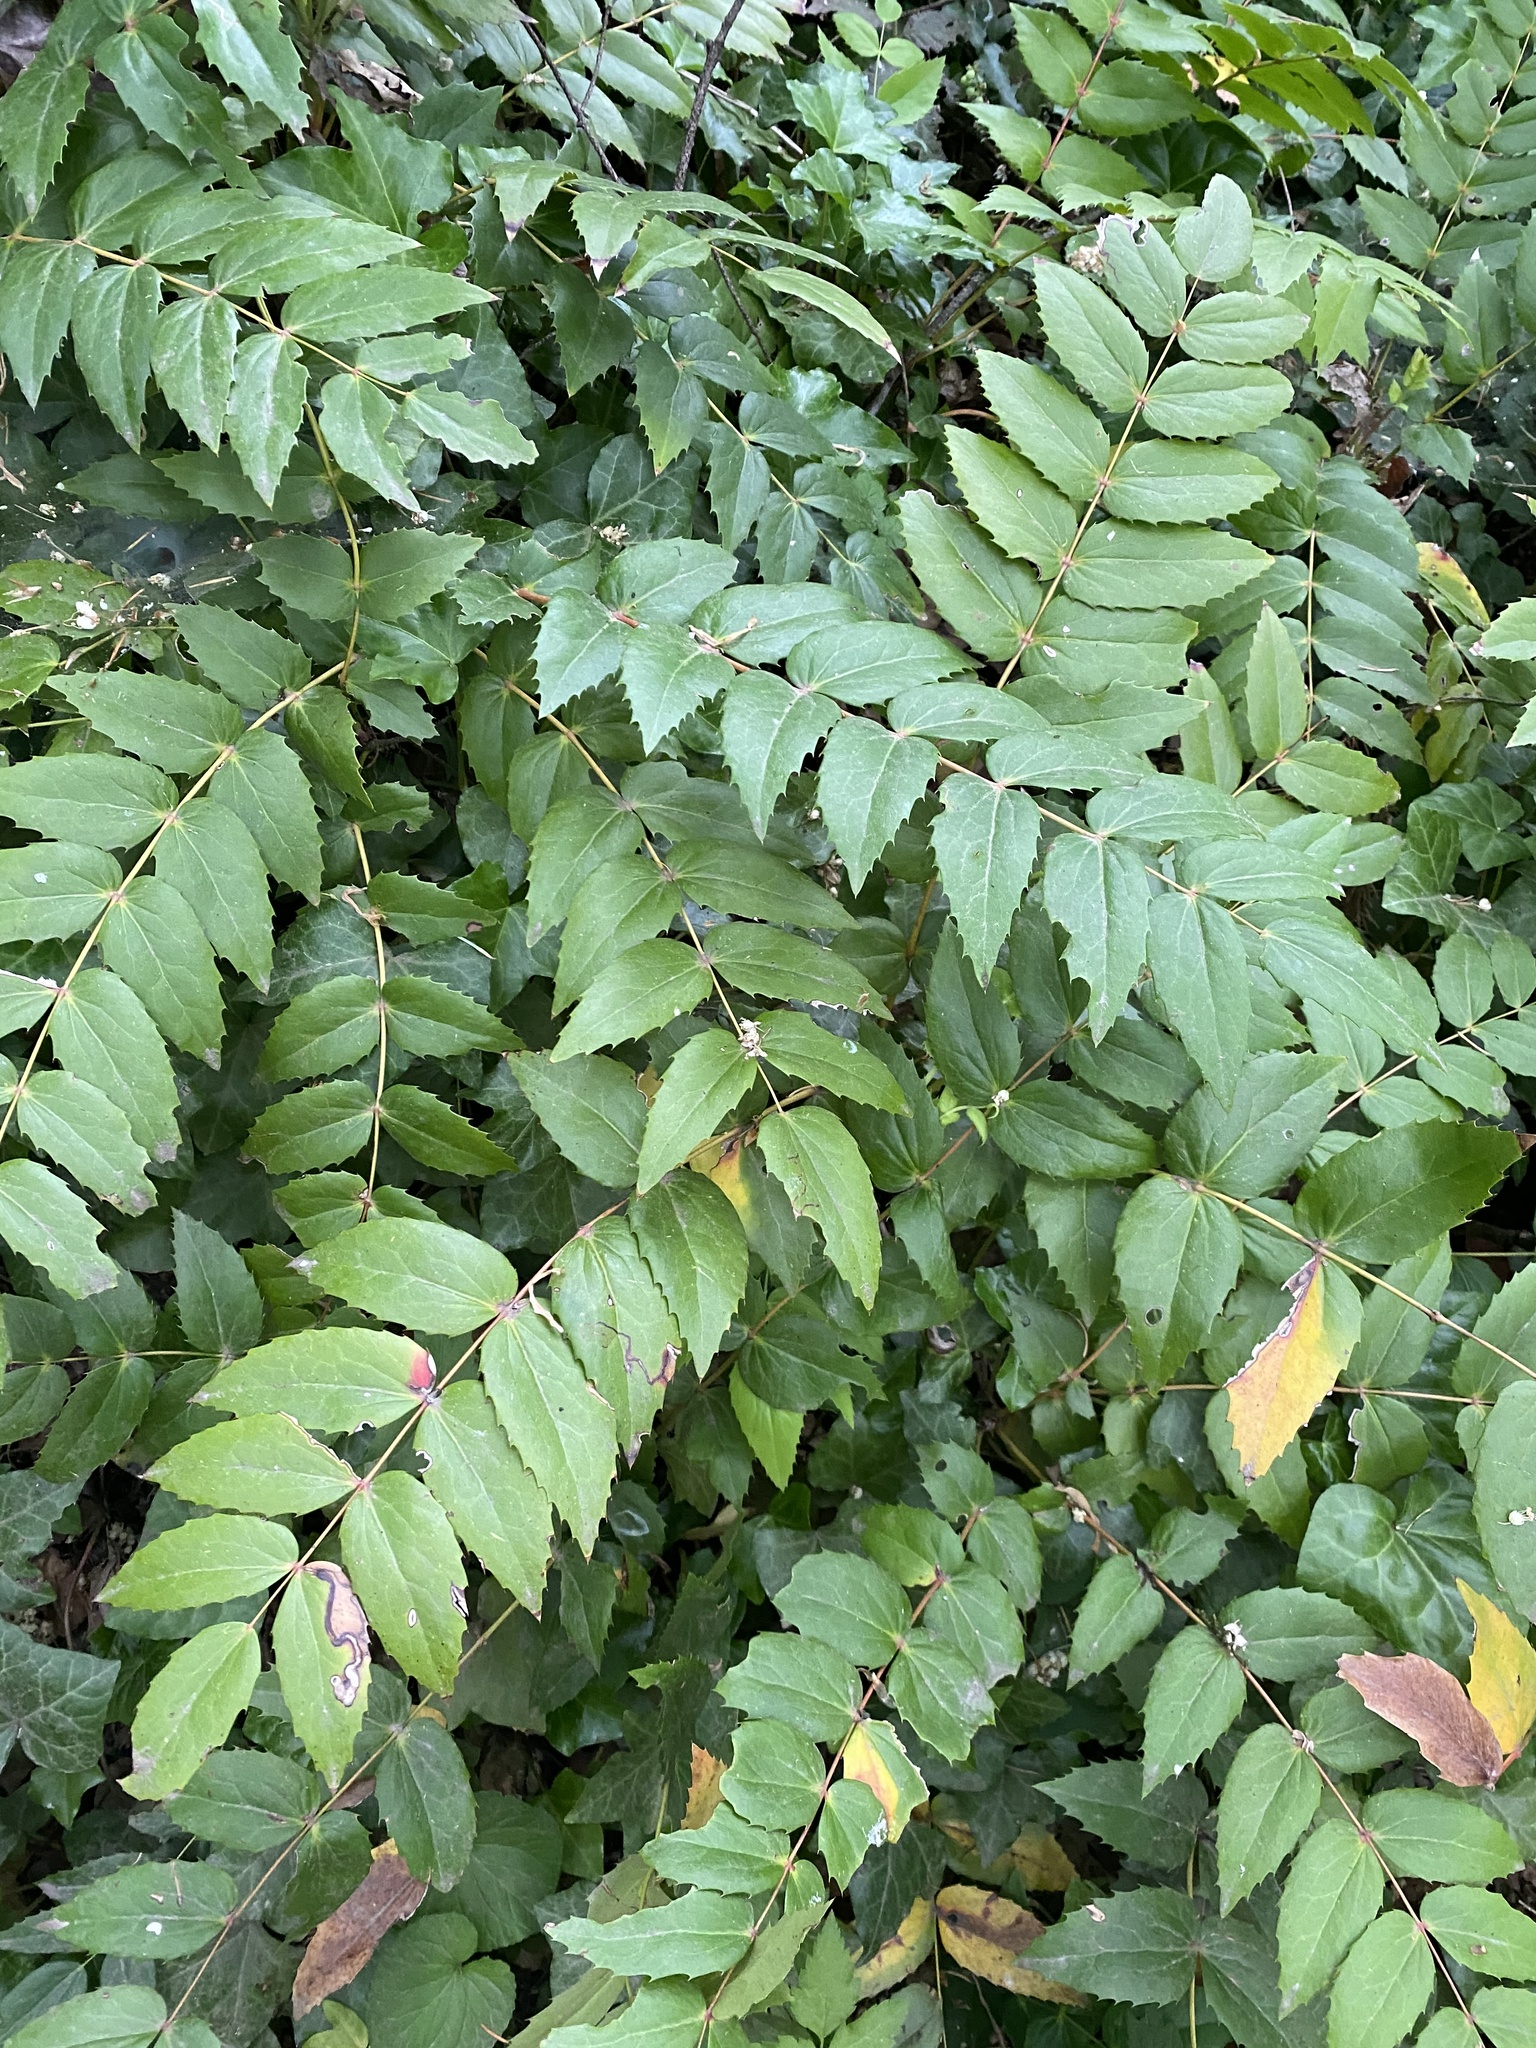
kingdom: Plantae
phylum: Tracheophyta
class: Magnoliopsida
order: Ranunculales
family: Berberidaceae
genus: Mahonia
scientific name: Mahonia nervosa
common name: Cascade oregon-grape
